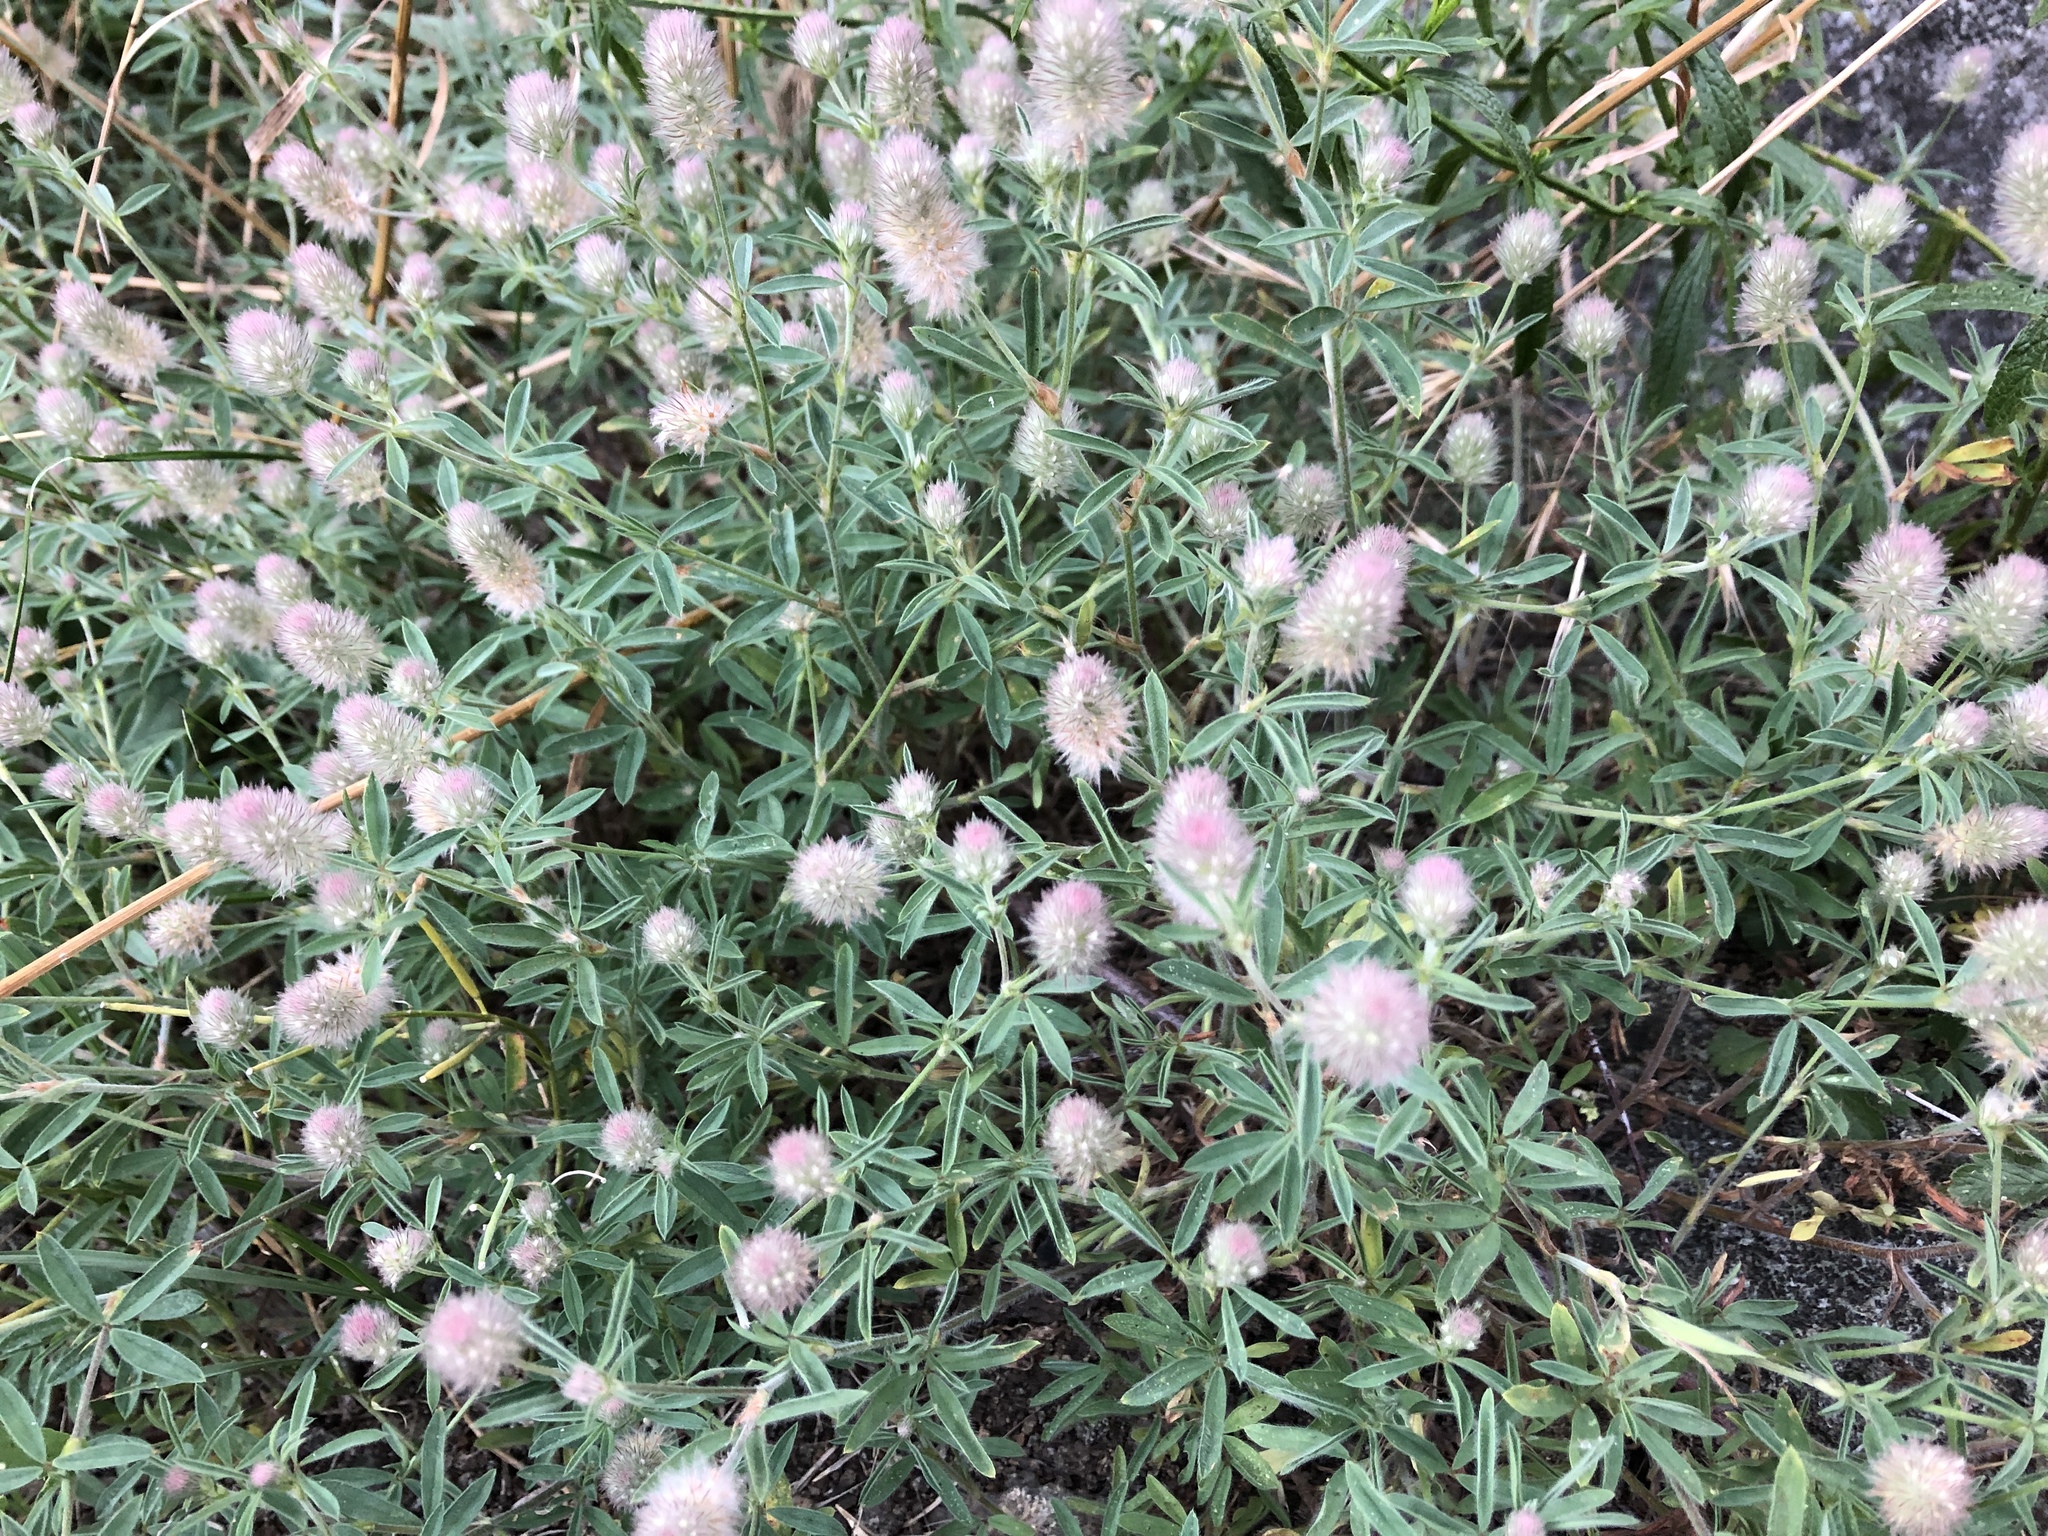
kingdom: Plantae
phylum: Tracheophyta
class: Magnoliopsida
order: Fabales
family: Fabaceae
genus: Trifolium
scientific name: Trifolium arvense
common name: Hare's-foot clover
